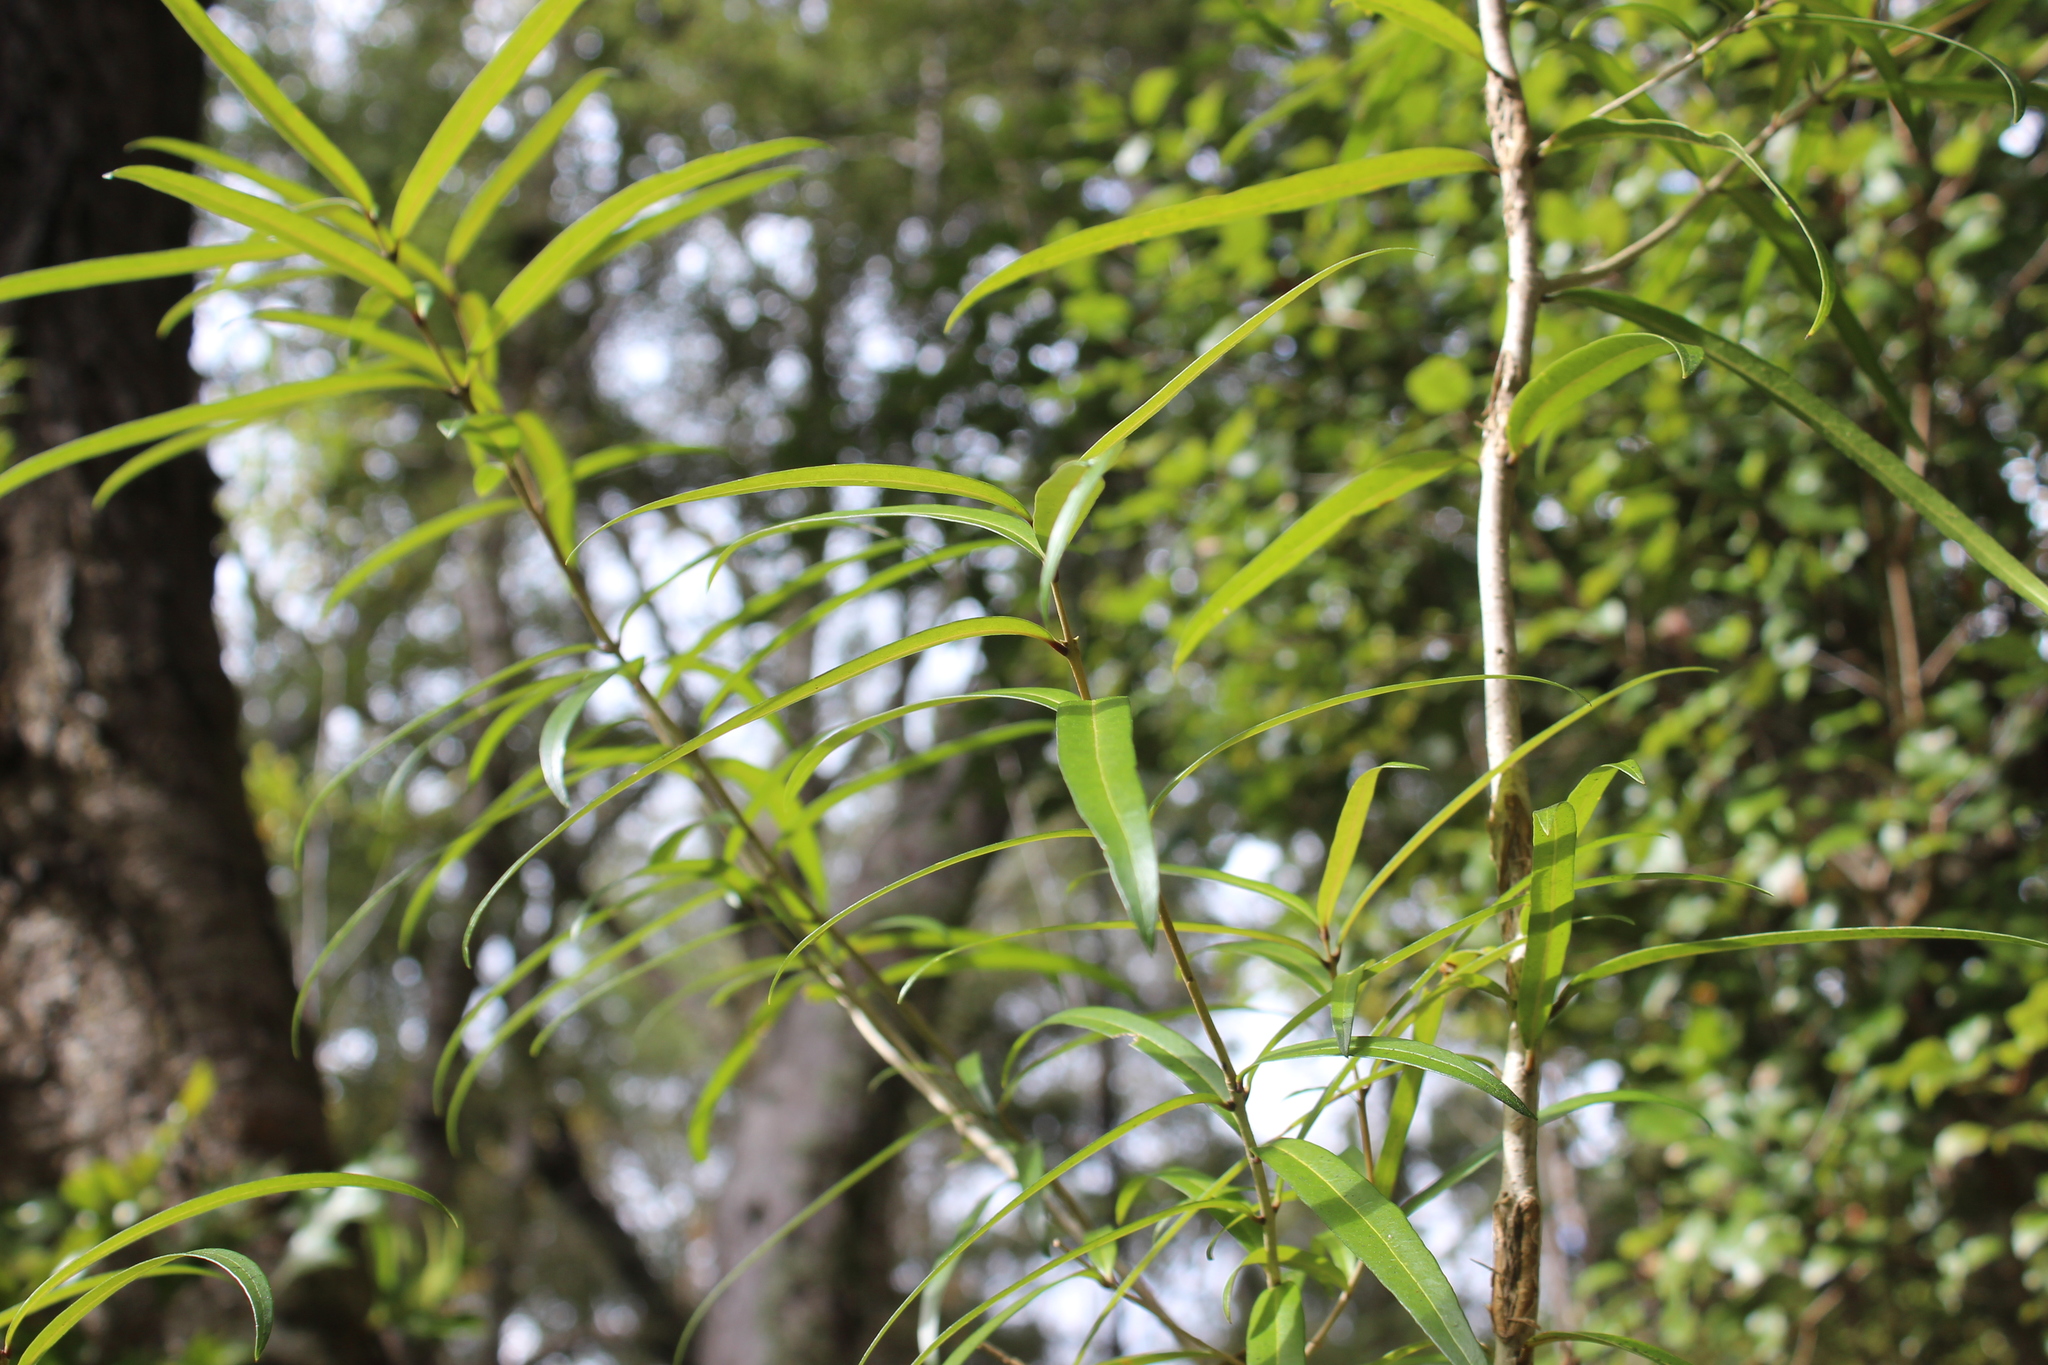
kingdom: Plantae
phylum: Tracheophyta
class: Magnoliopsida
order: Lamiales
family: Oleaceae
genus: Nestegis
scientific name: Nestegis lanceolata
